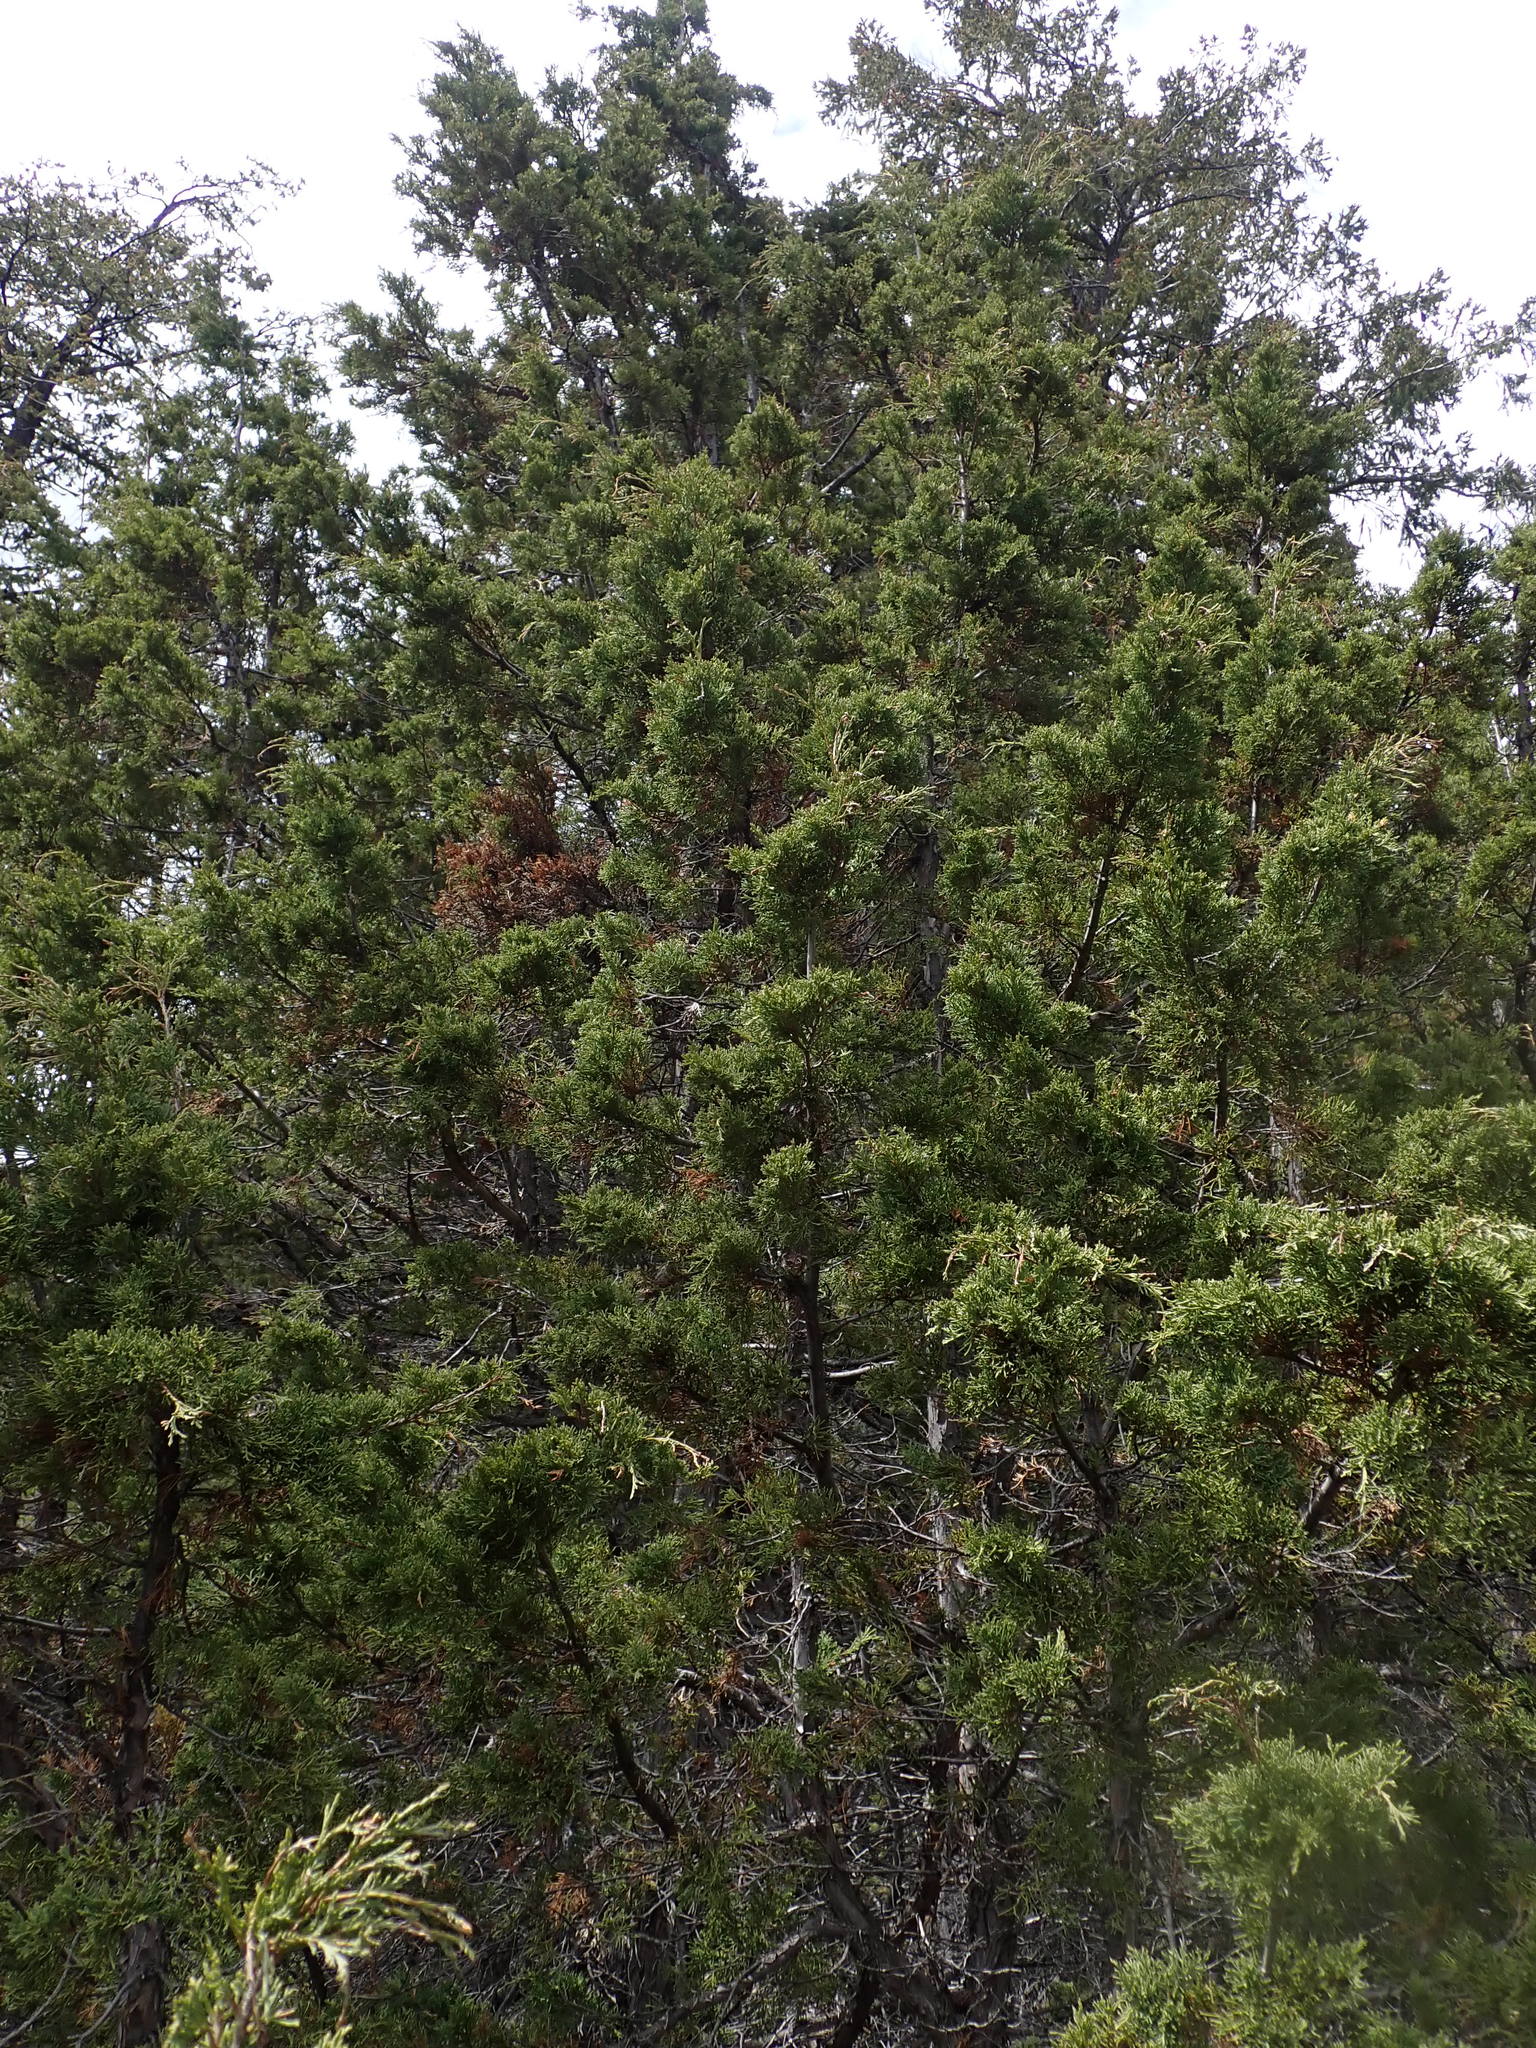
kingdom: Plantae
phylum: Tracheophyta
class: Pinopsida
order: Pinales
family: Cupressaceae
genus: Juniperus
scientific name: Juniperus scopulorum
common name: Rocky mountain juniper
